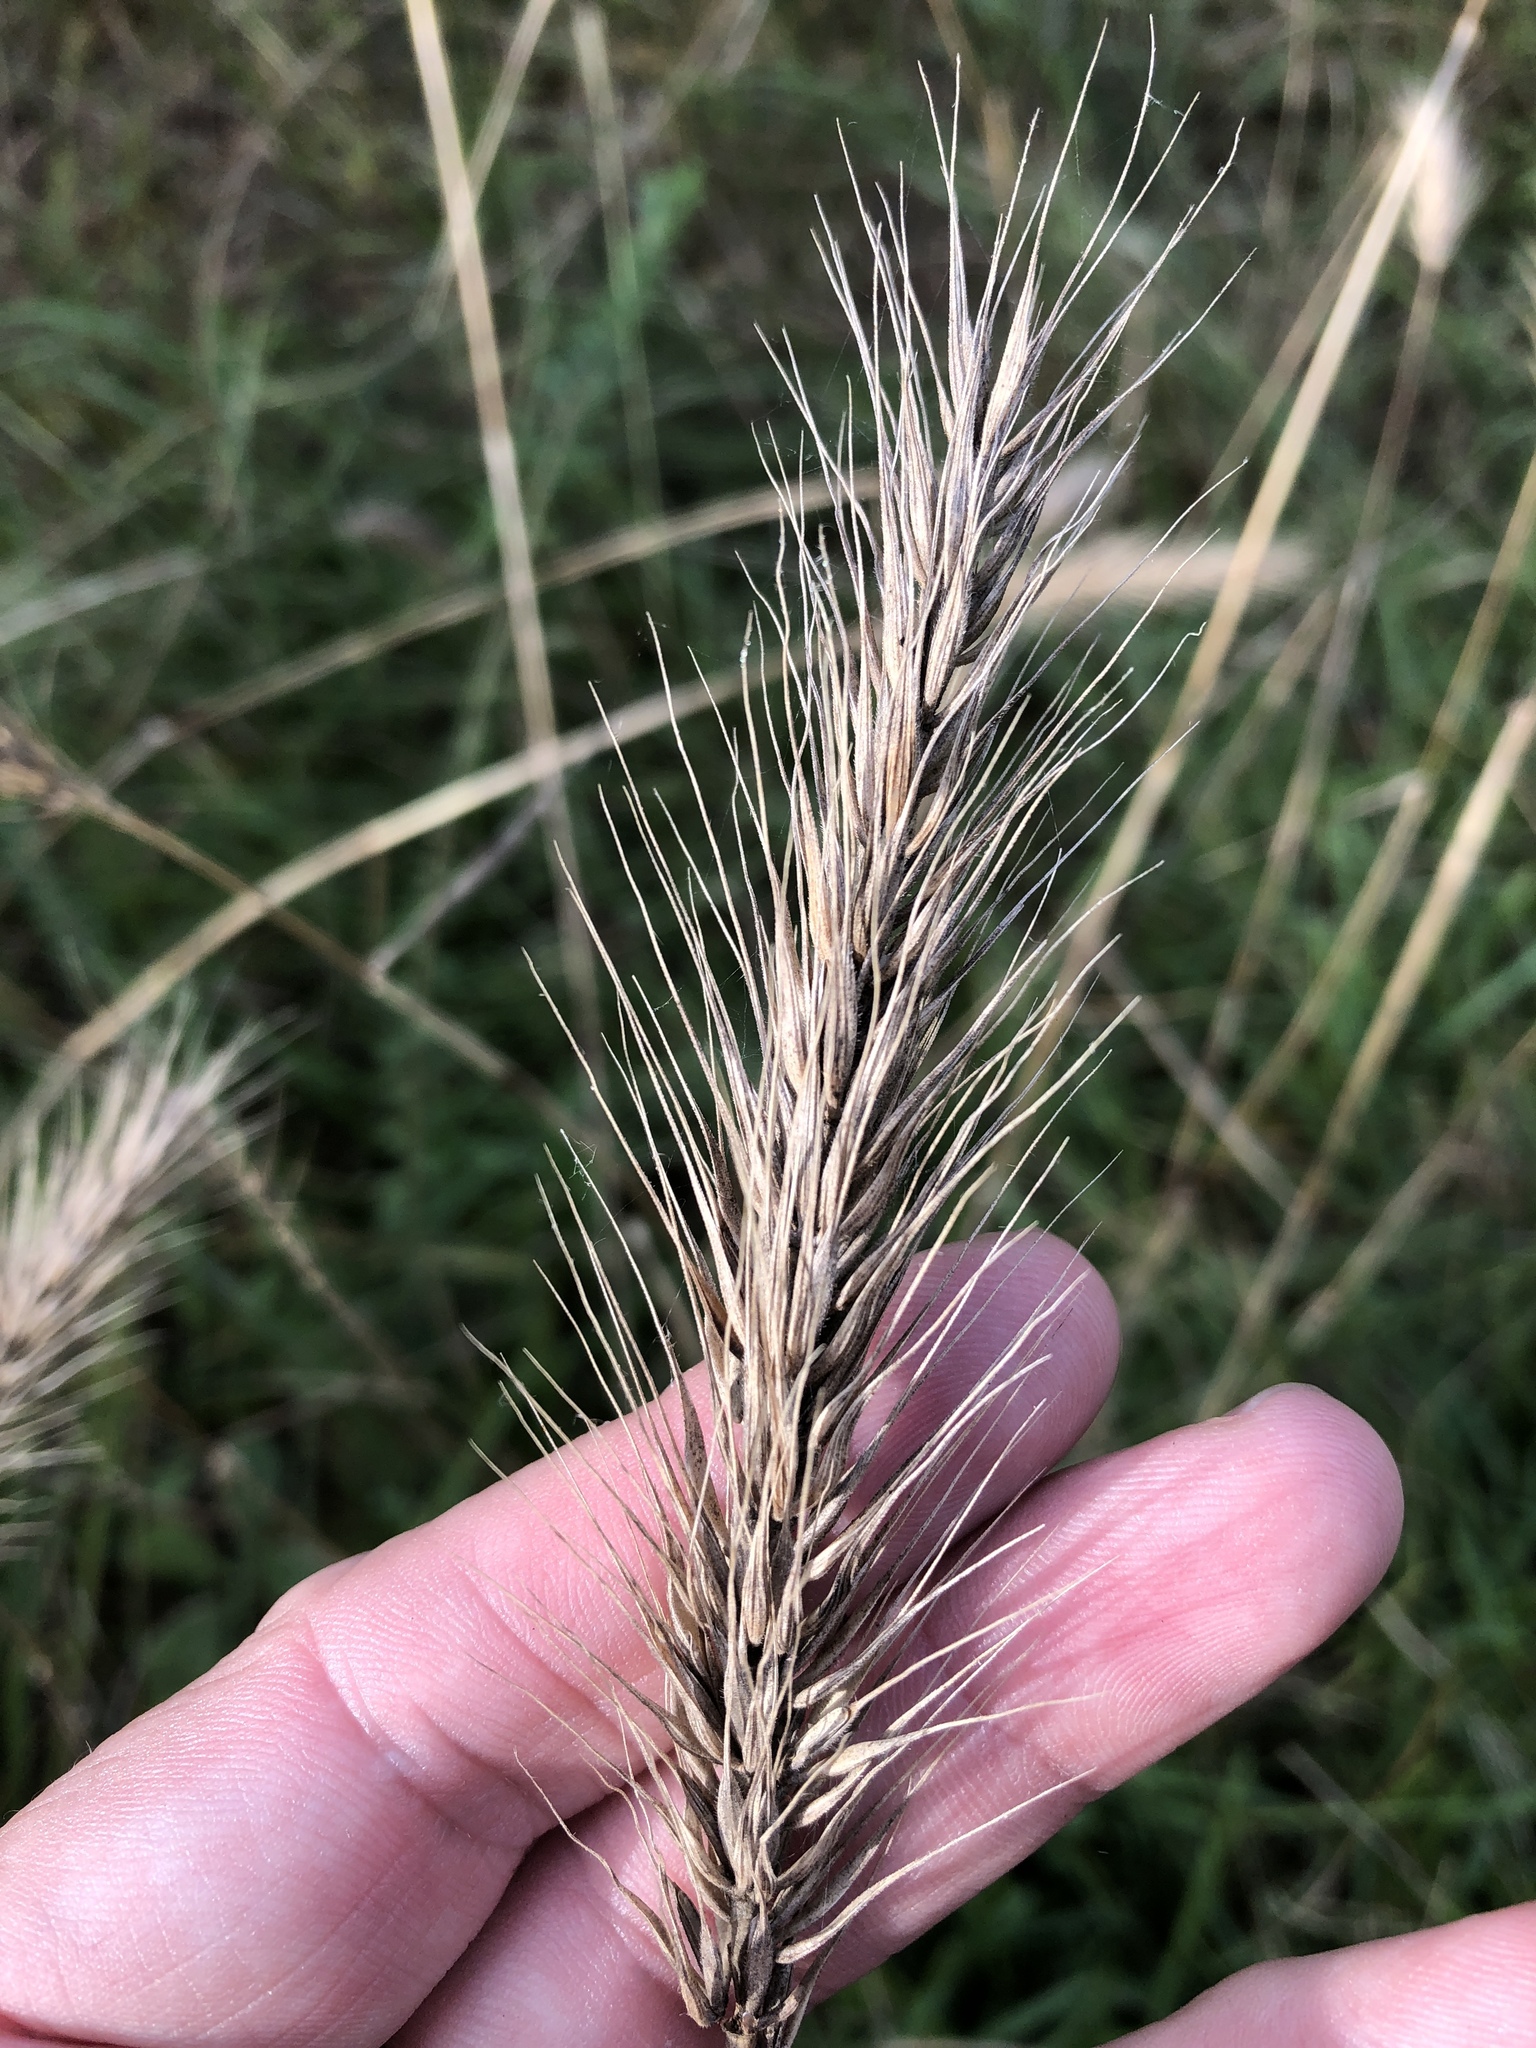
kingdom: Plantae
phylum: Tracheophyta
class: Liliopsida
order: Poales
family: Poaceae
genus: Elymus
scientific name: Elymus canadensis
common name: Canada wild rye
